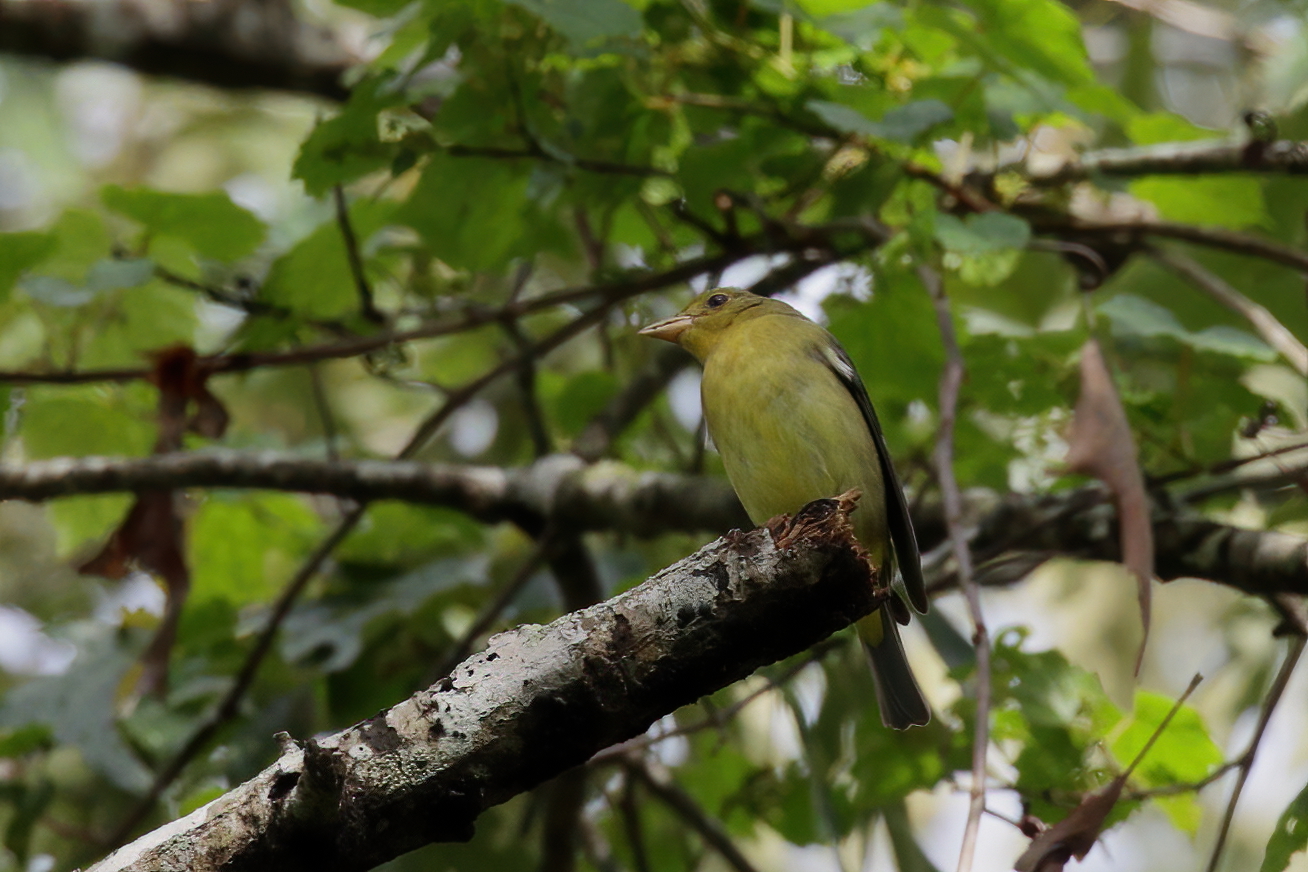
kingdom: Animalia
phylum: Chordata
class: Aves
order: Passeriformes
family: Cardinalidae
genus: Piranga
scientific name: Piranga olivacea
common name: Scarlet tanager
